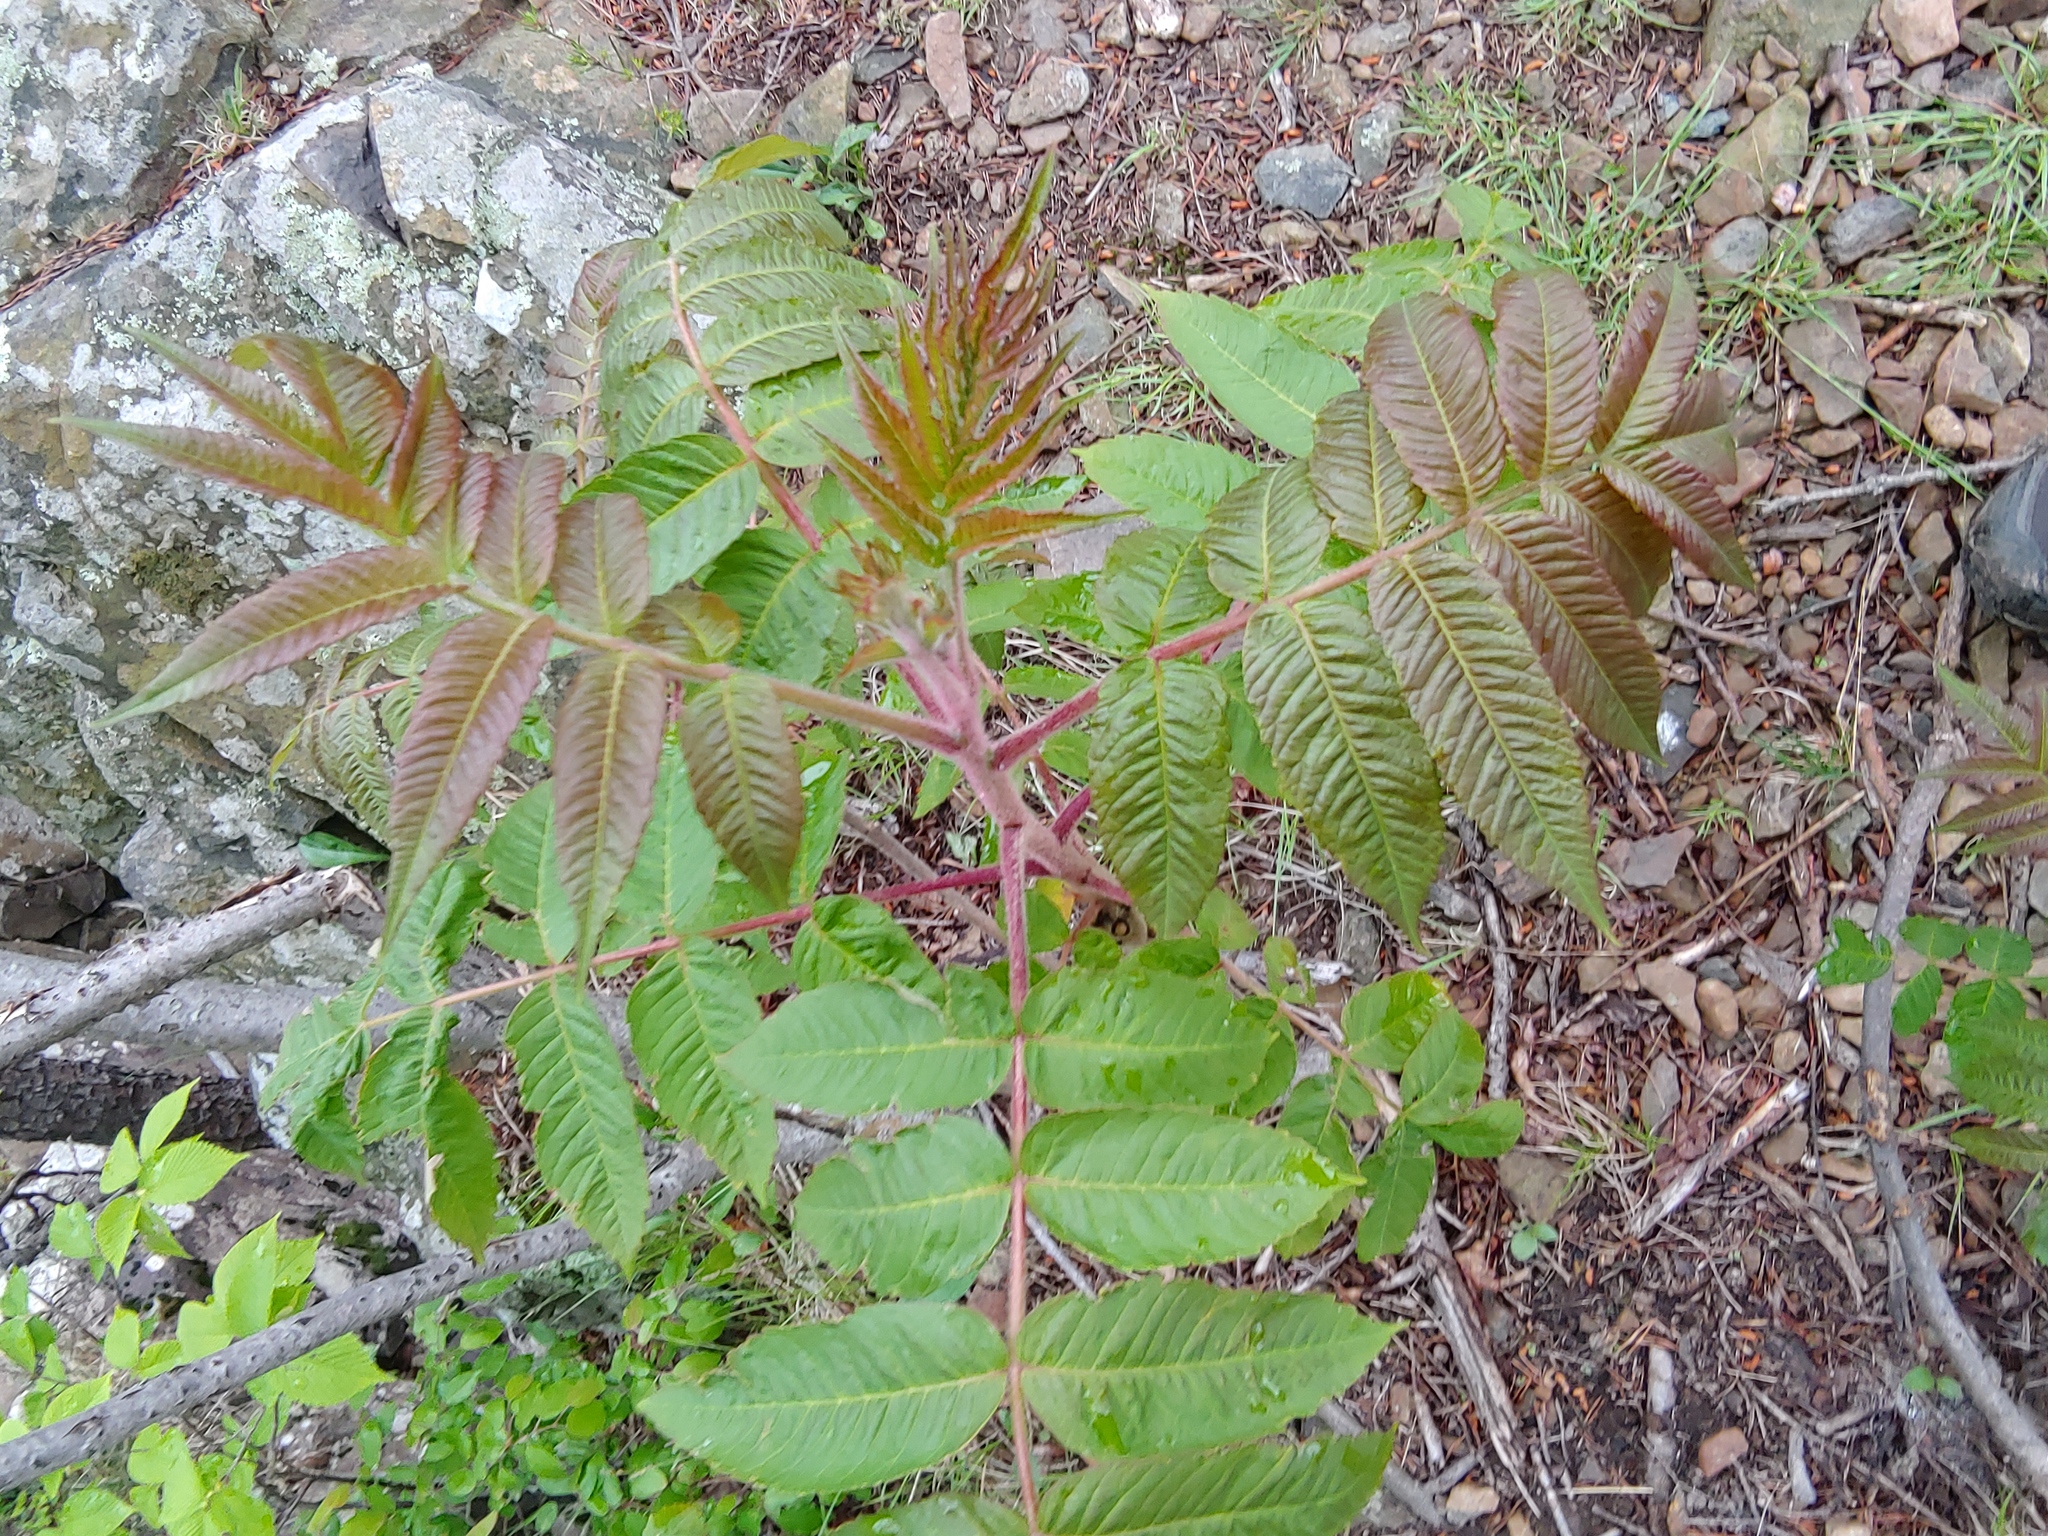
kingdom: Plantae
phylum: Tracheophyta
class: Magnoliopsida
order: Sapindales
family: Anacardiaceae
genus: Rhus
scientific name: Rhus typhina
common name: Staghorn sumac
